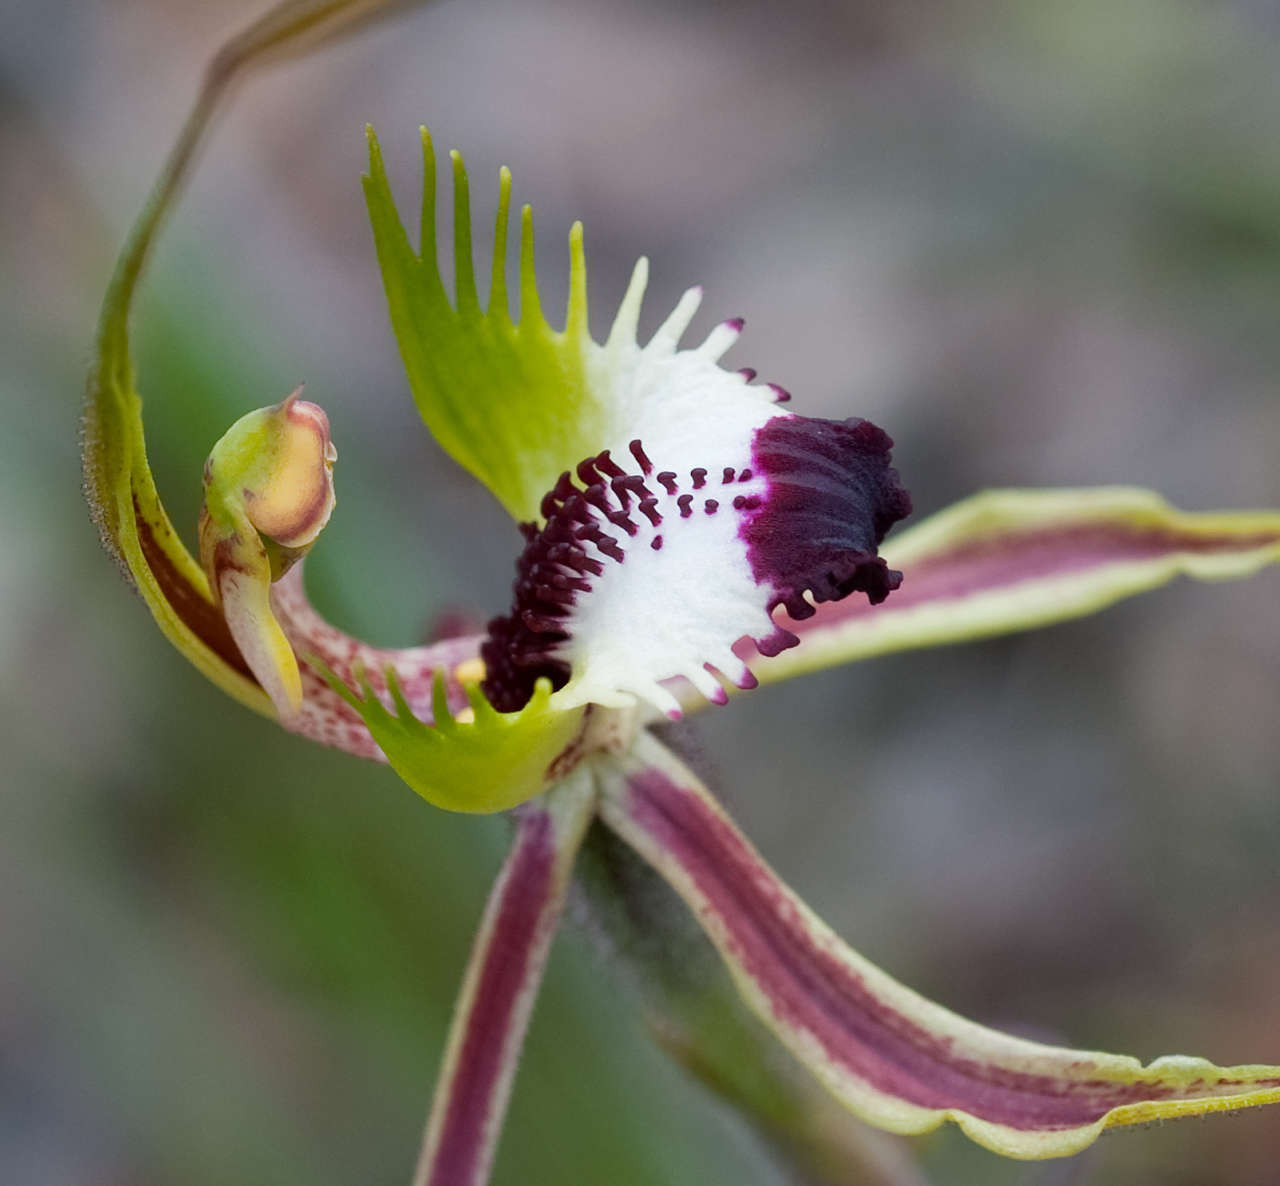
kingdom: Plantae
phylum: Tracheophyta
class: Liliopsida
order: Asparagales
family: Orchidaceae
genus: Caladenia
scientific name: Caladenia tentaculata
